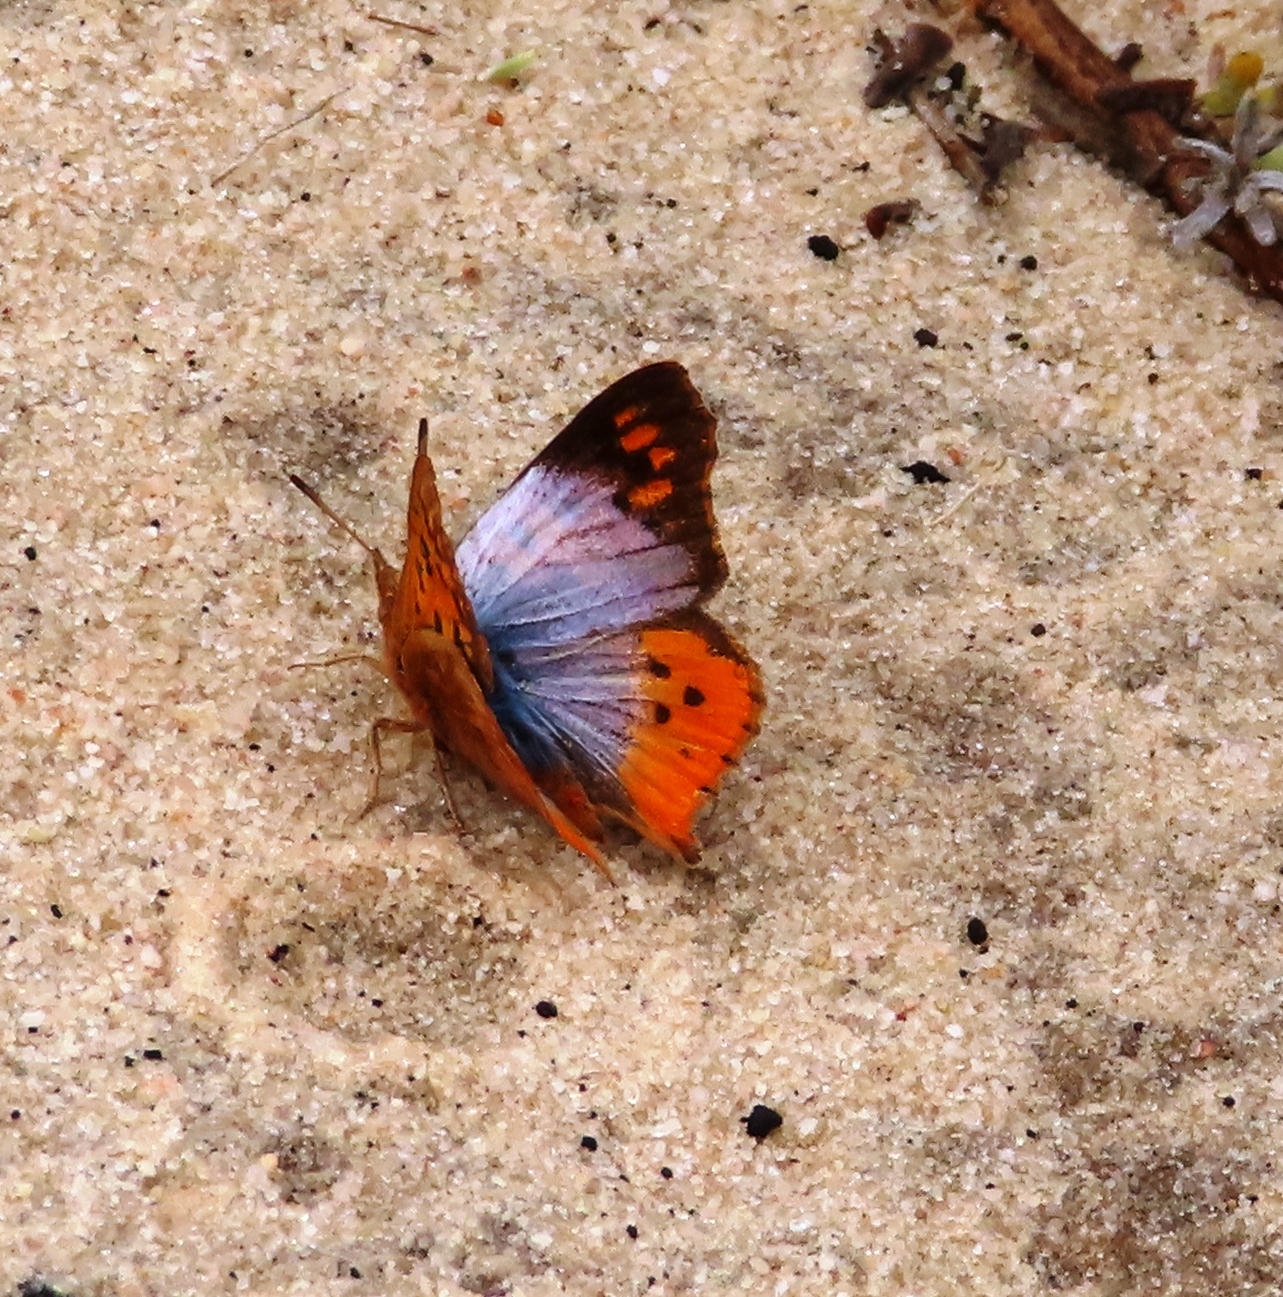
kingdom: Animalia
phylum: Arthropoda
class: Insecta
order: Lepidoptera
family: Lycaenidae
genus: Chrysoritis
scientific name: Chrysoritis thysbe
